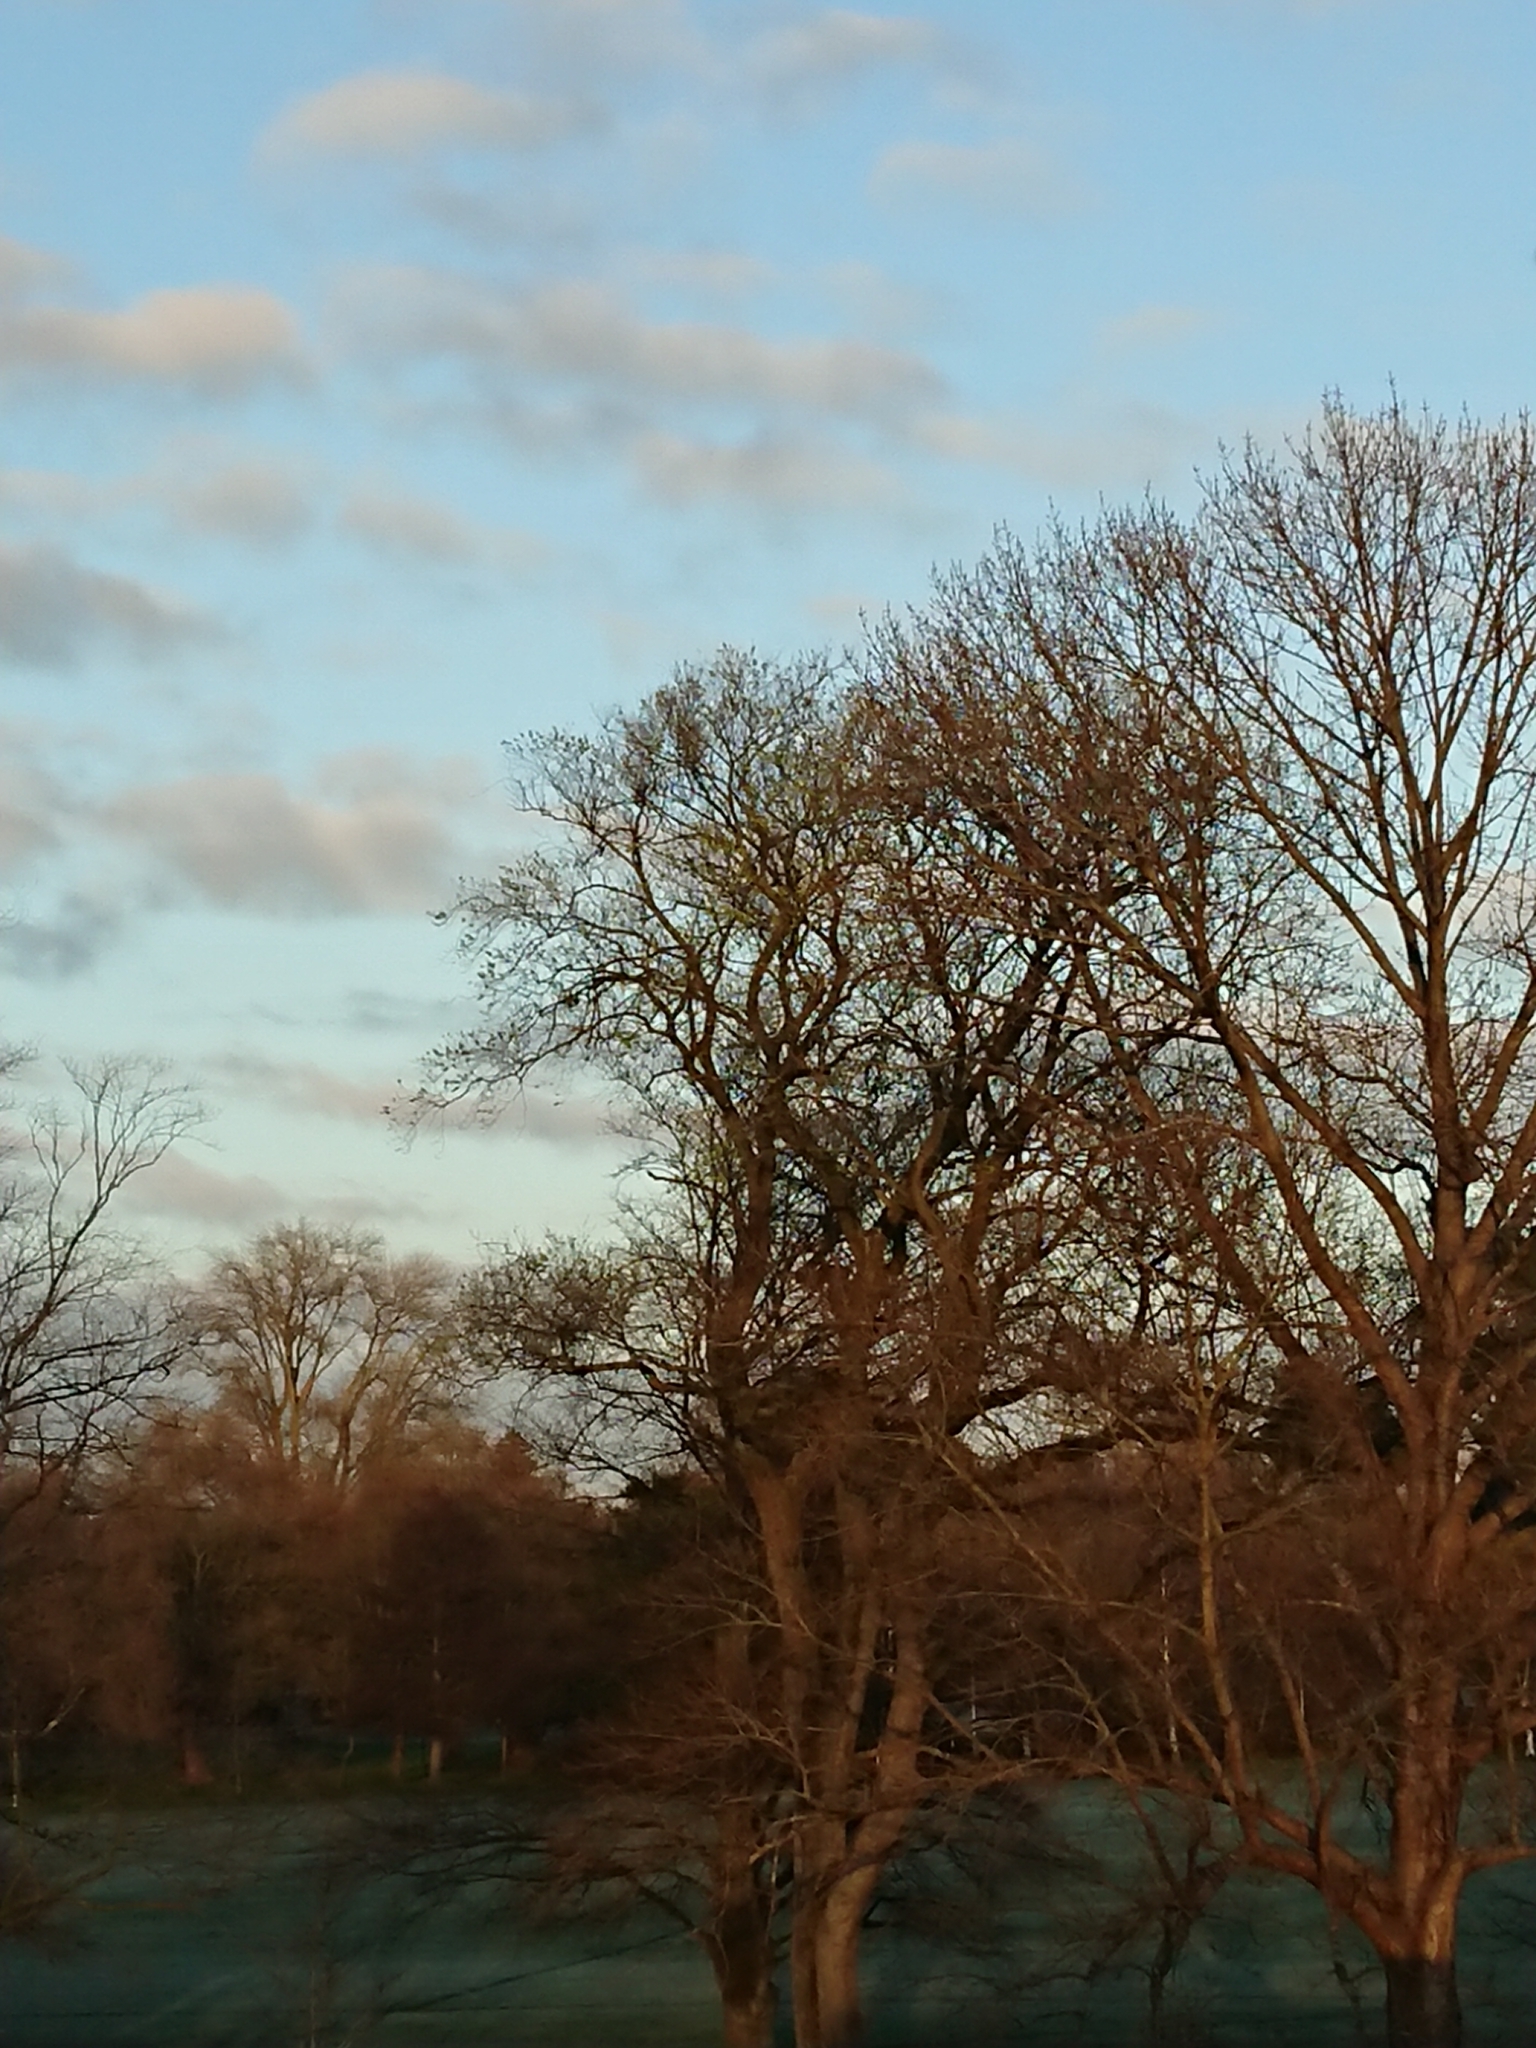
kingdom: Animalia
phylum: Chordata
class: Aves
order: Columbiformes
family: Columbidae
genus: Hemiphaga
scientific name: Hemiphaga novaeseelandiae
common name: New zealand pigeon
